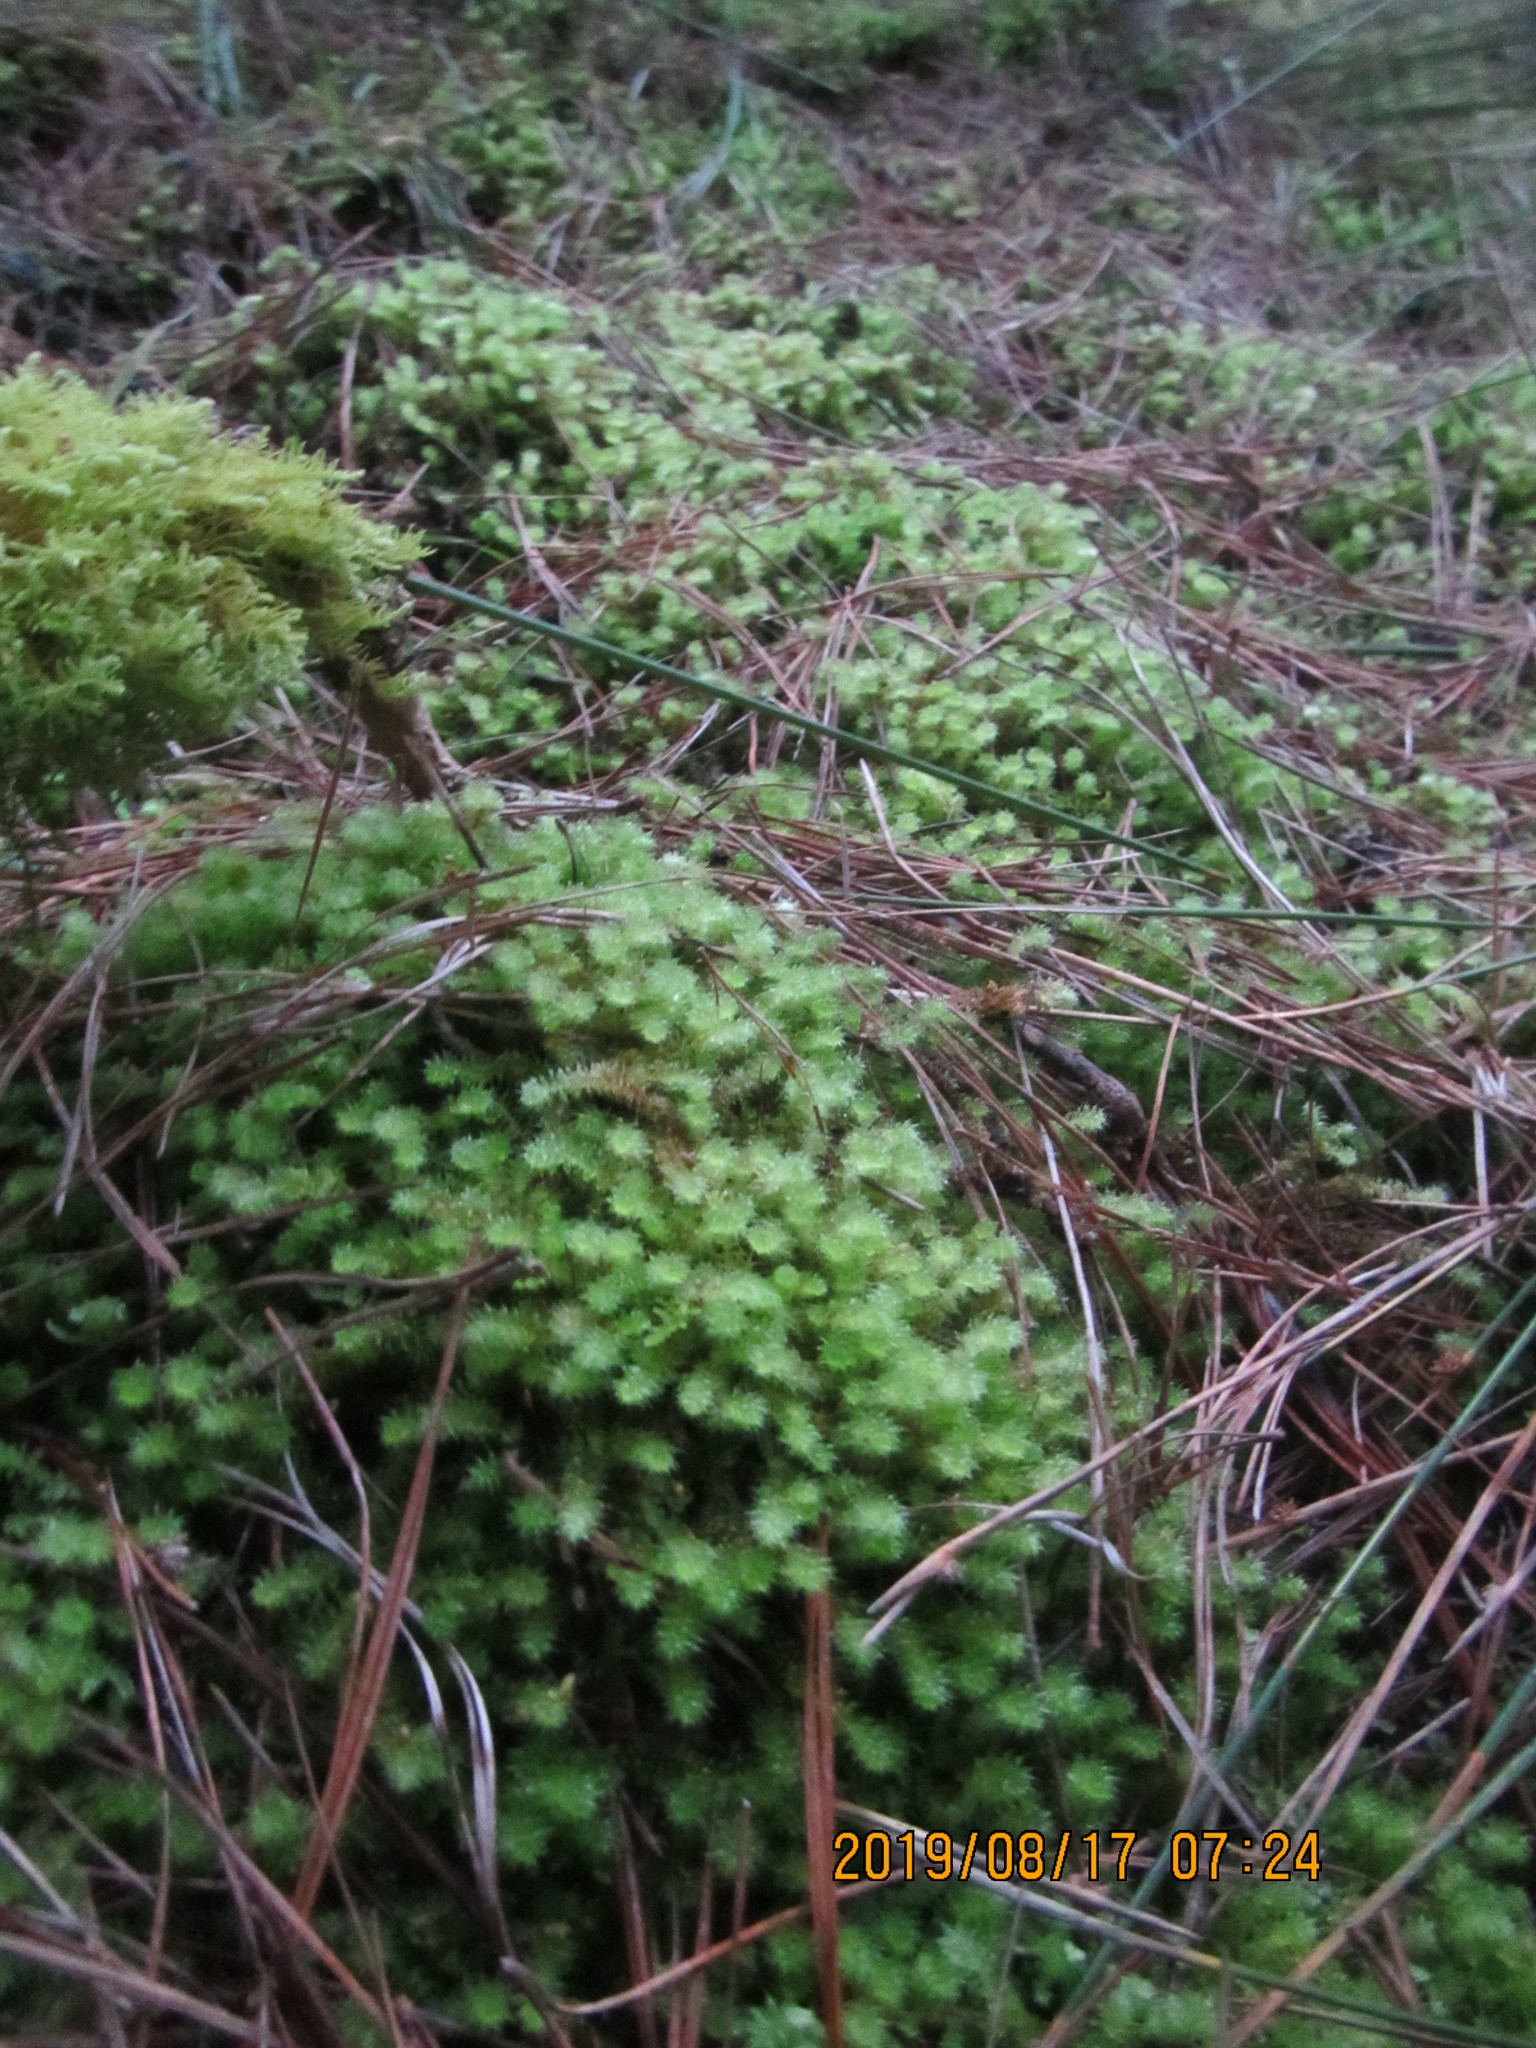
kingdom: Plantae
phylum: Bryophyta
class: Bryopsida
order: Ptychomniales
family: Ptychomniaceae
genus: Ptychomnion
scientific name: Ptychomnion aciculare
